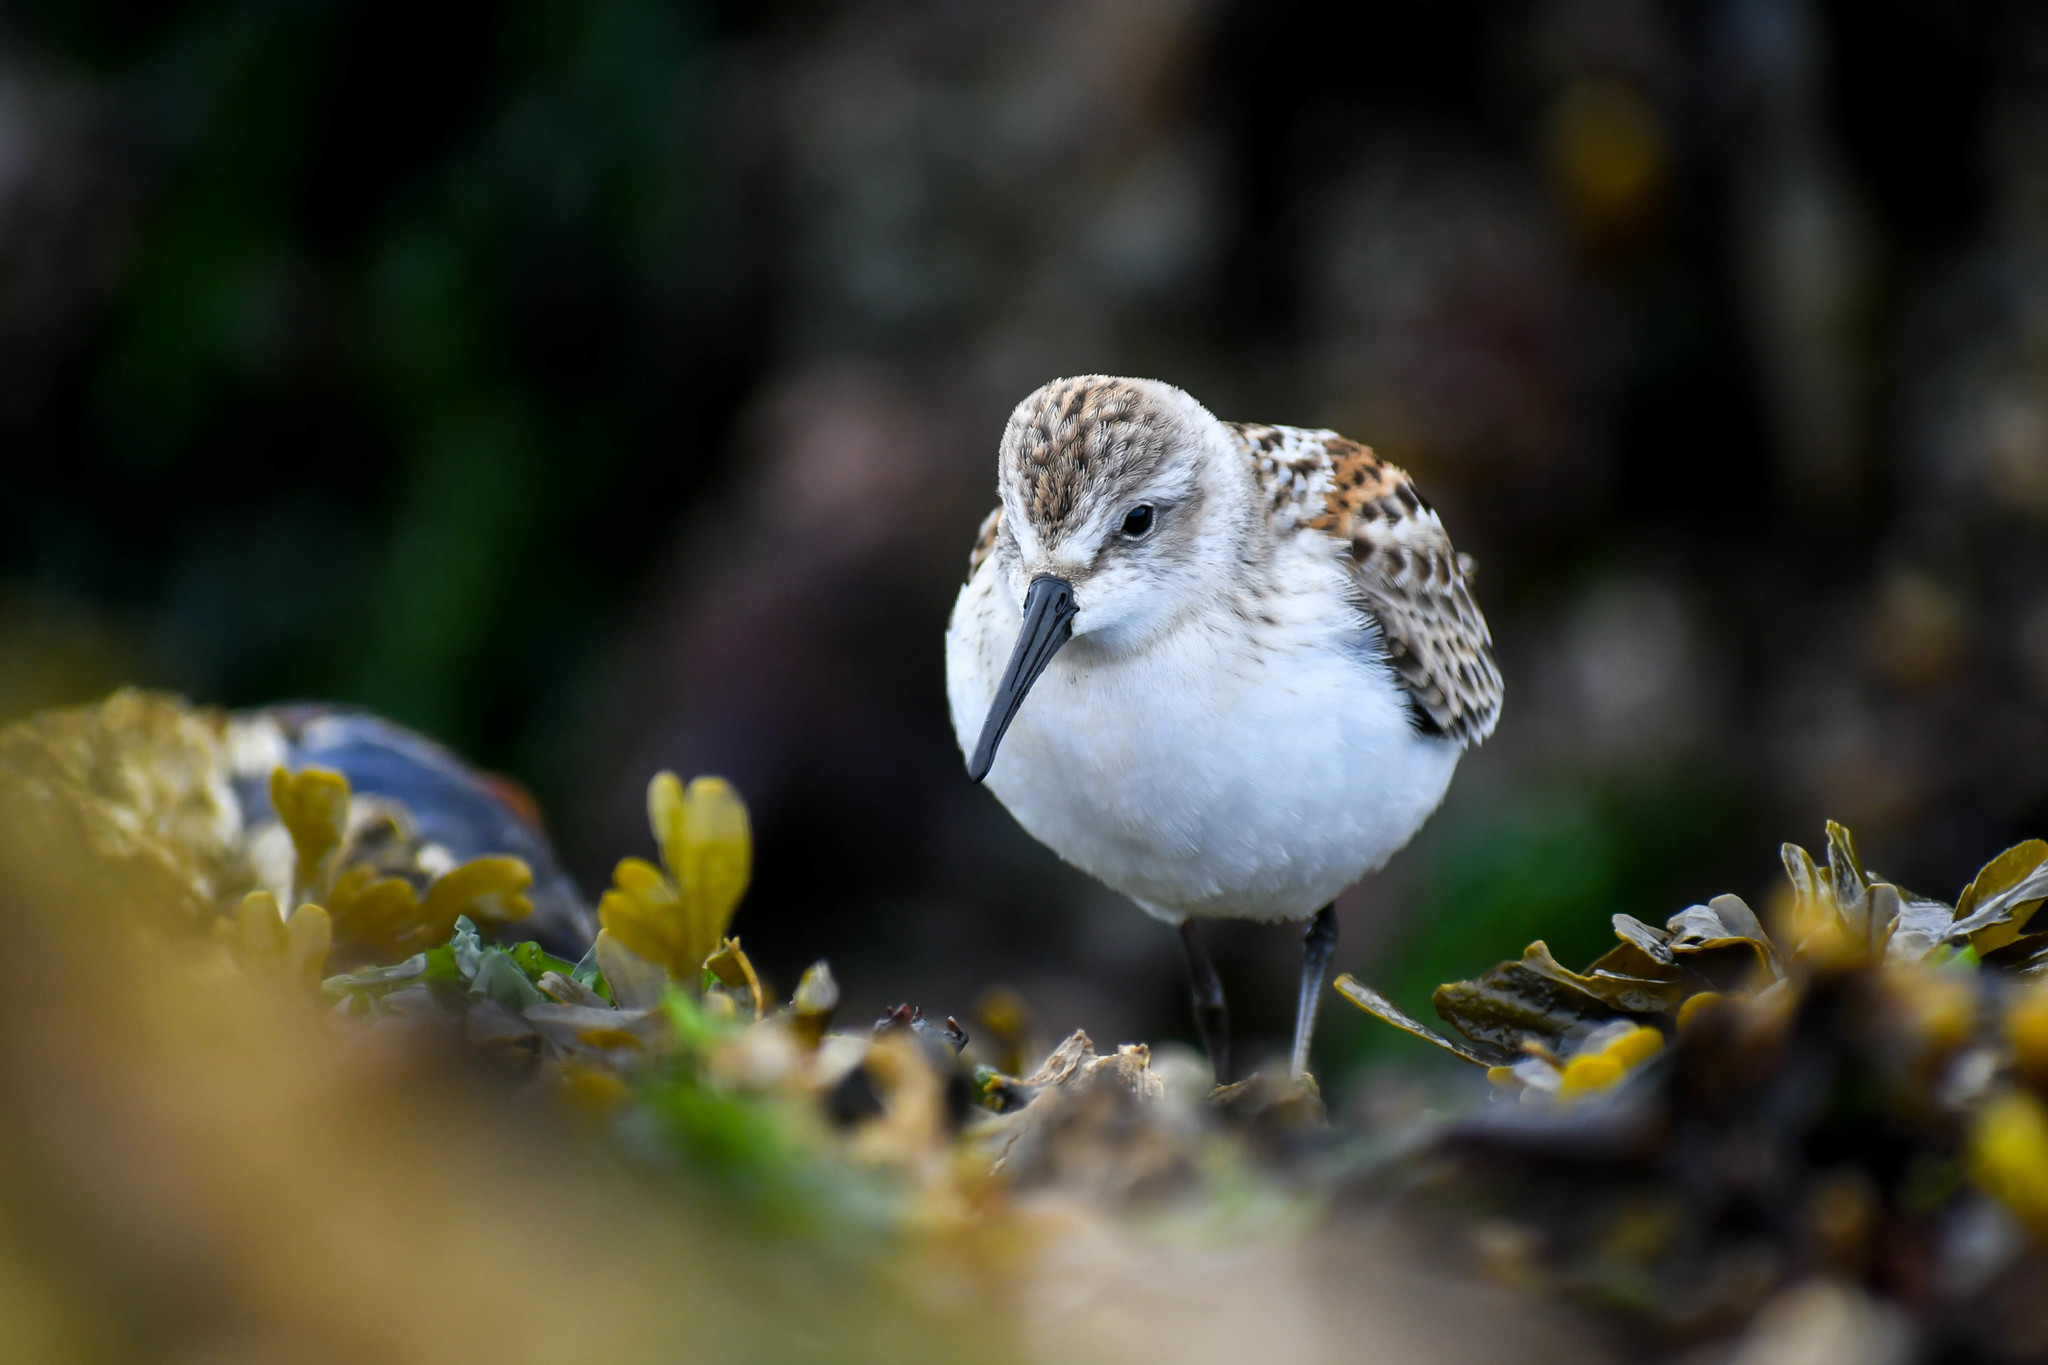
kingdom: Animalia
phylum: Chordata
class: Aves
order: Charadriiformes
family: Scolopacidae
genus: Calidris
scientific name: Calidris mauri
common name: Western sandpiper
